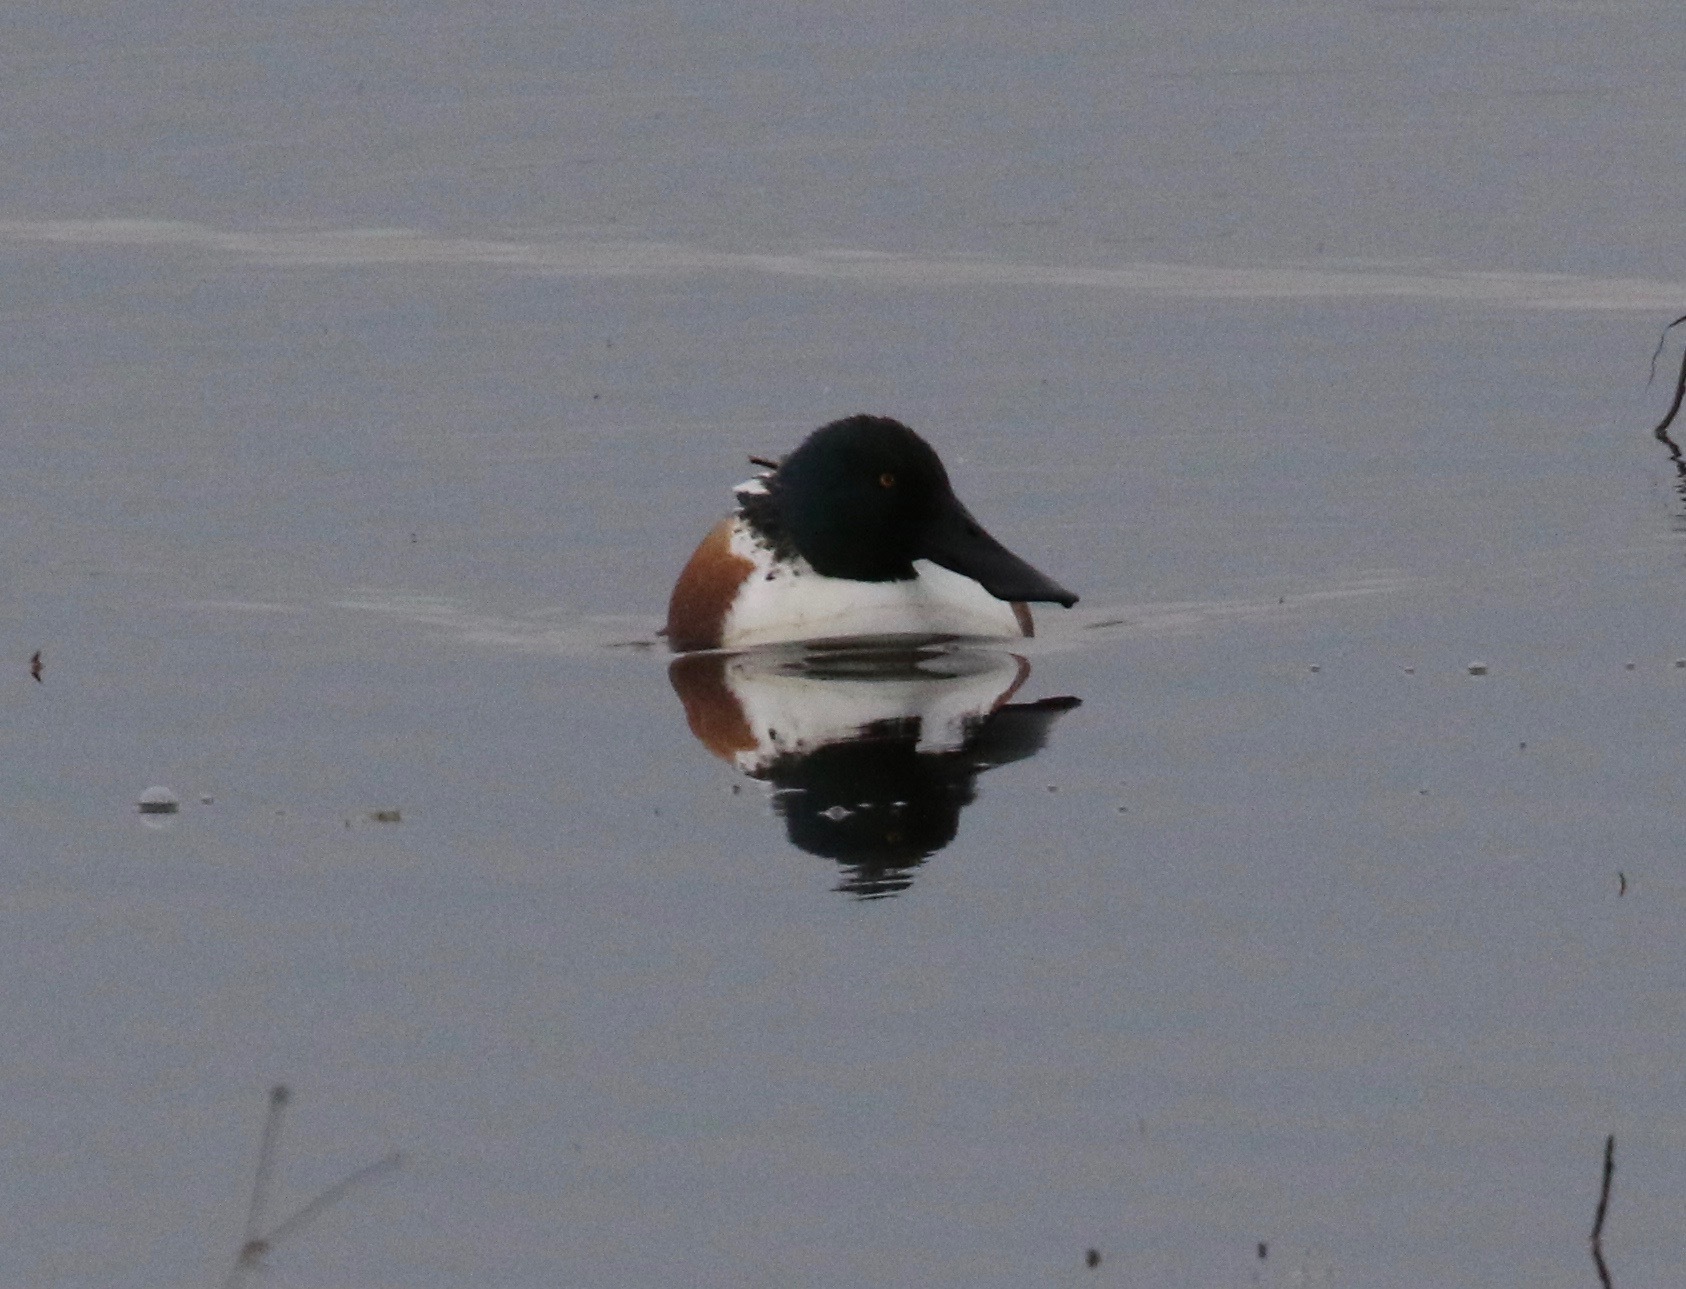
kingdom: Animalia
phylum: Chordata
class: Aves
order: Anseriformes
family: Anatidae
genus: Spatula
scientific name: Spatula clypeata
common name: Northern shoveler
